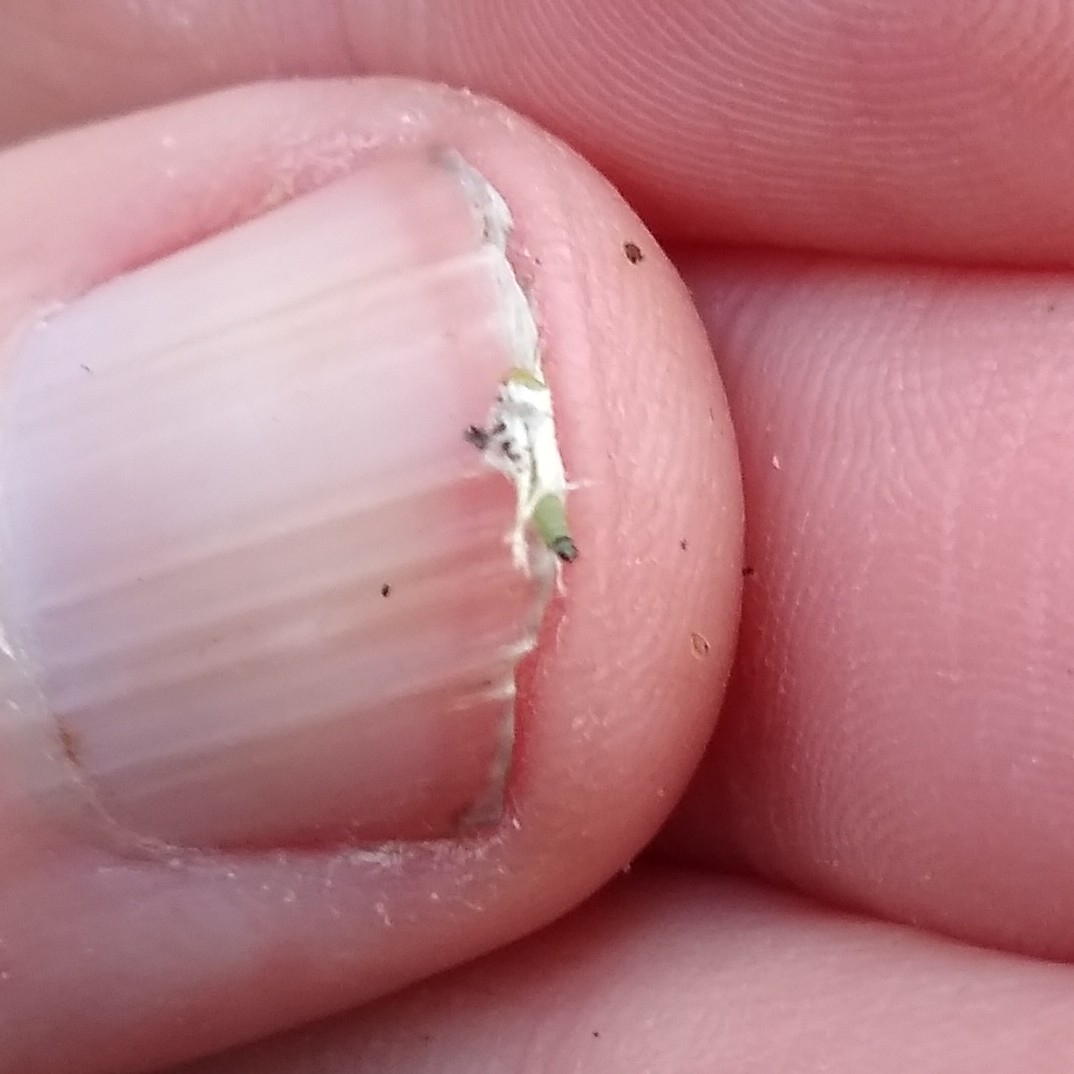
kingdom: Animalia
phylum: Arthropoda
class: Insecta
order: Lepidoptera
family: Gelechiidae
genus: Coleotechnites
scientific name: Coleotechnites apicitripunctella
